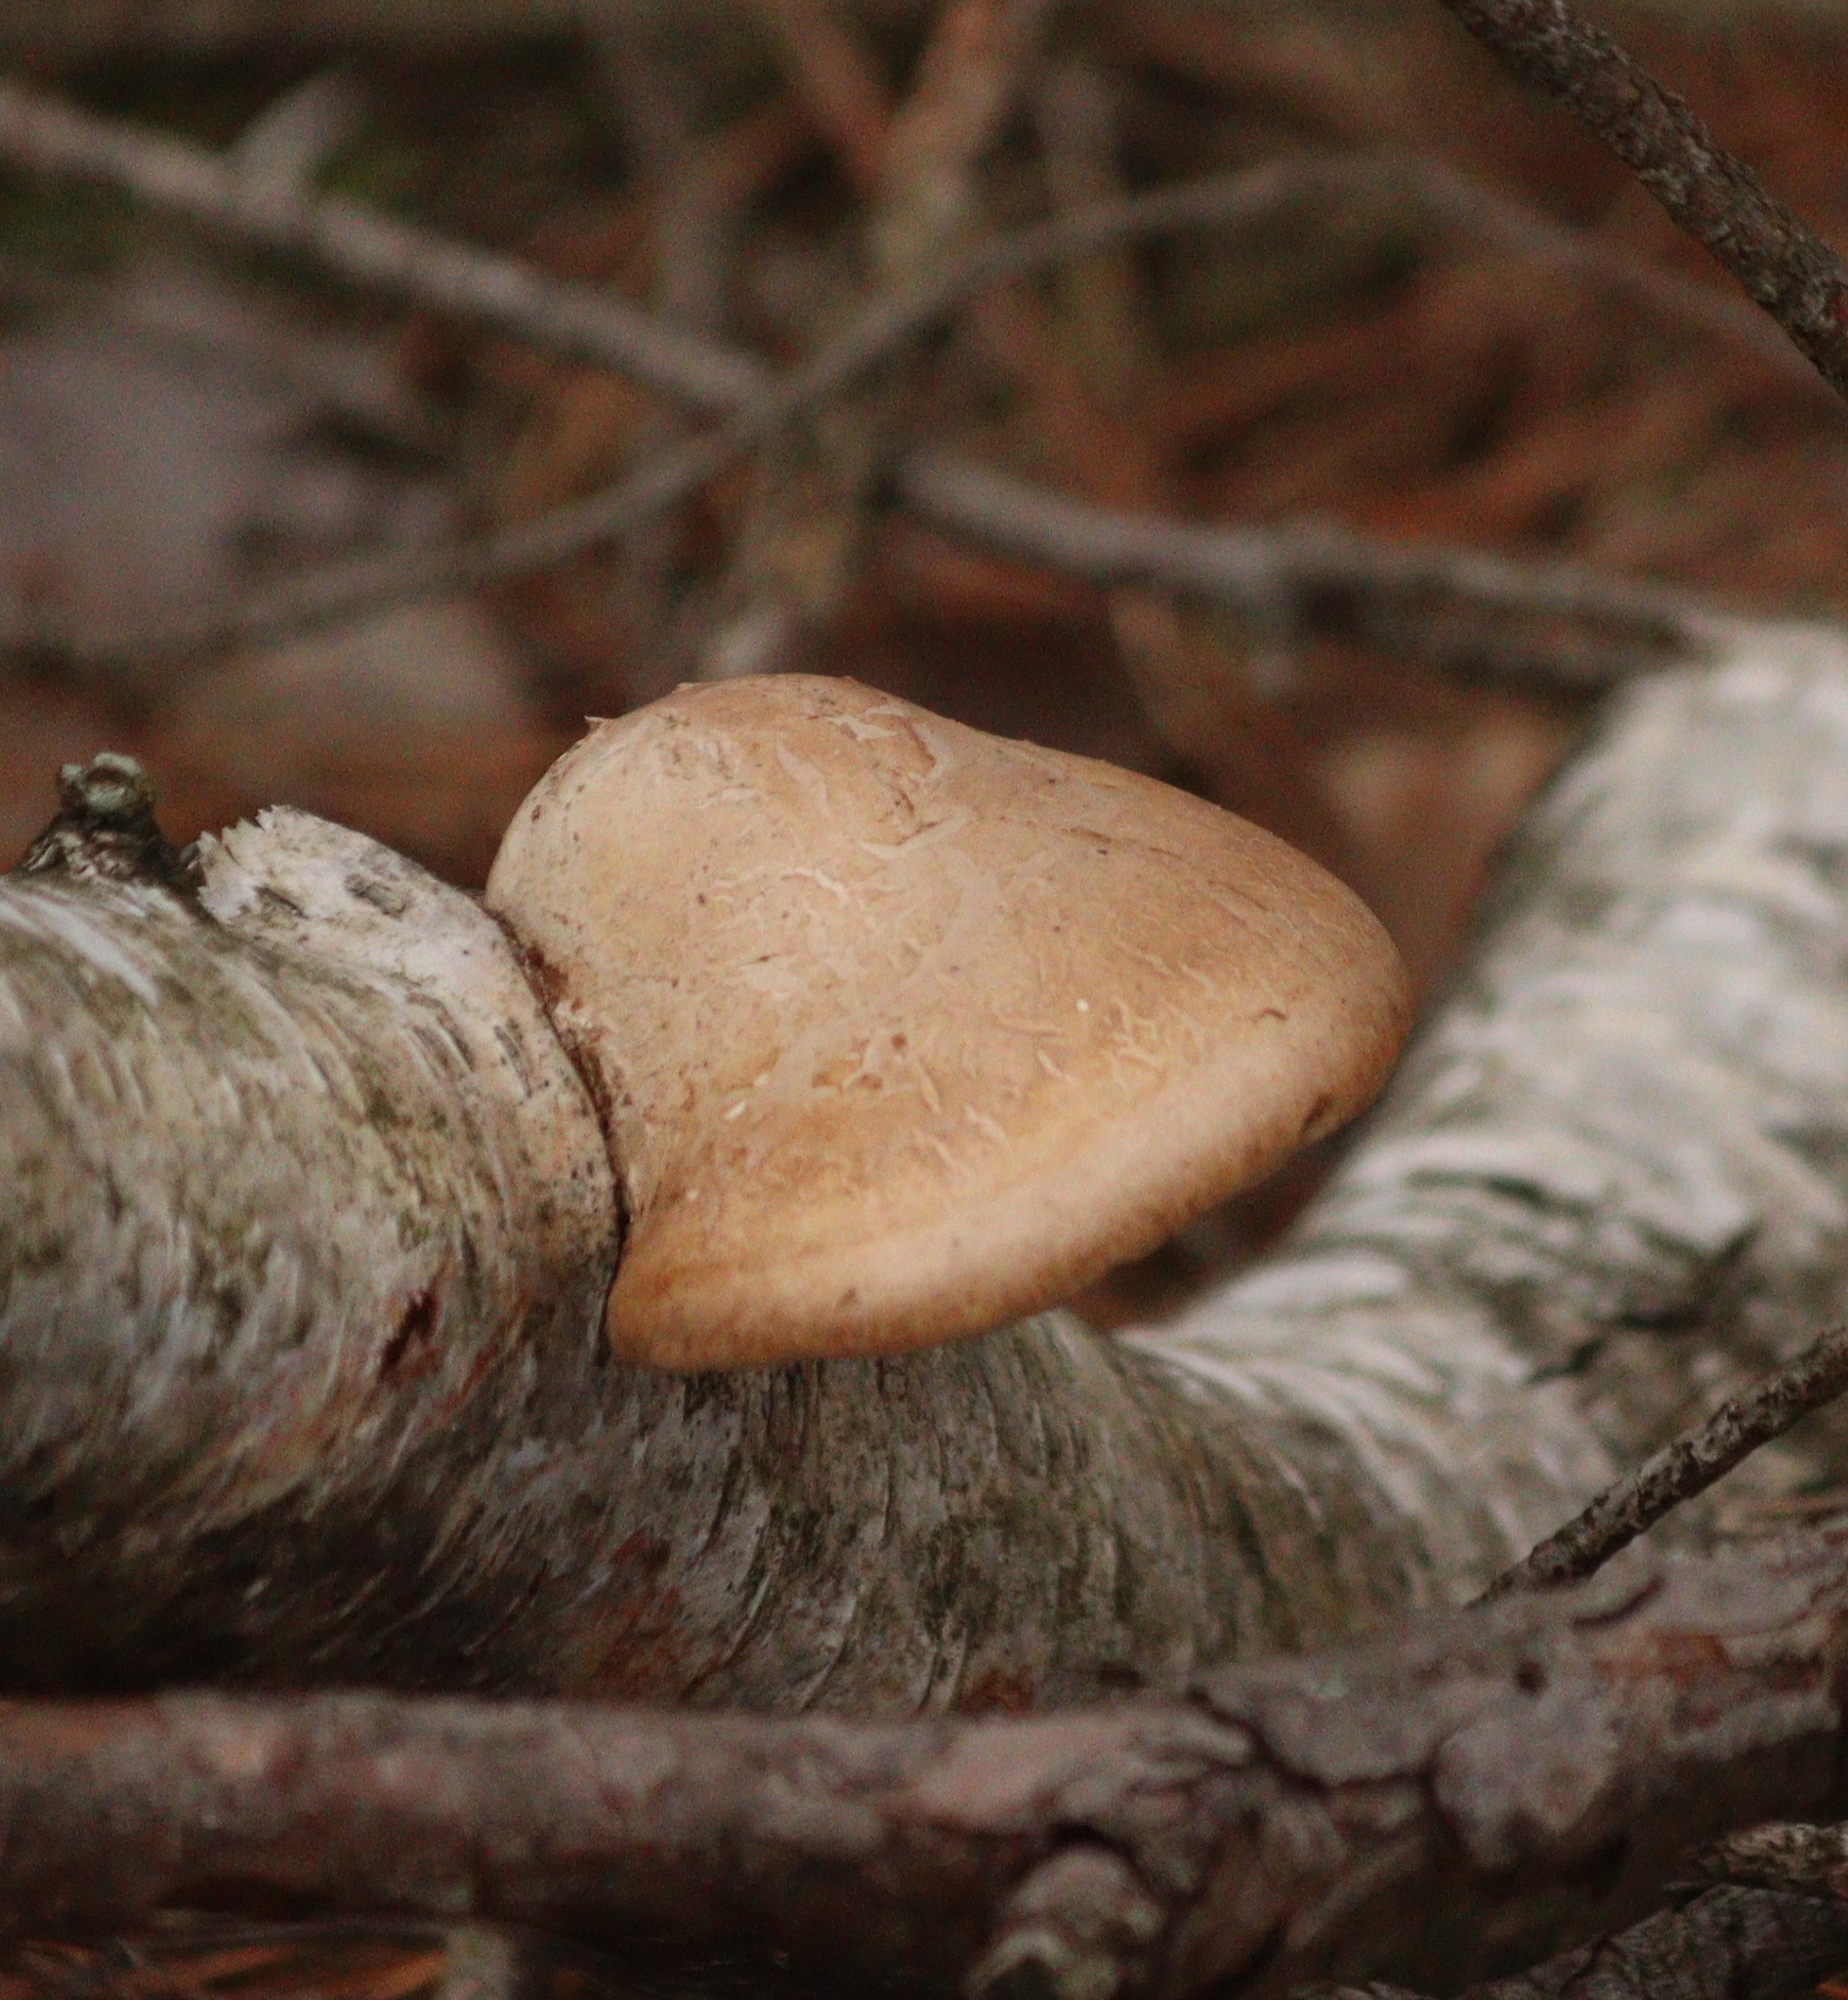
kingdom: Fungi
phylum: Basidiomycota
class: Agaricomycetes
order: Polyporales
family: Fomitopsidaceae
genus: Fomitopsis
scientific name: Fomitopsis betulina
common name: Birch polypore
